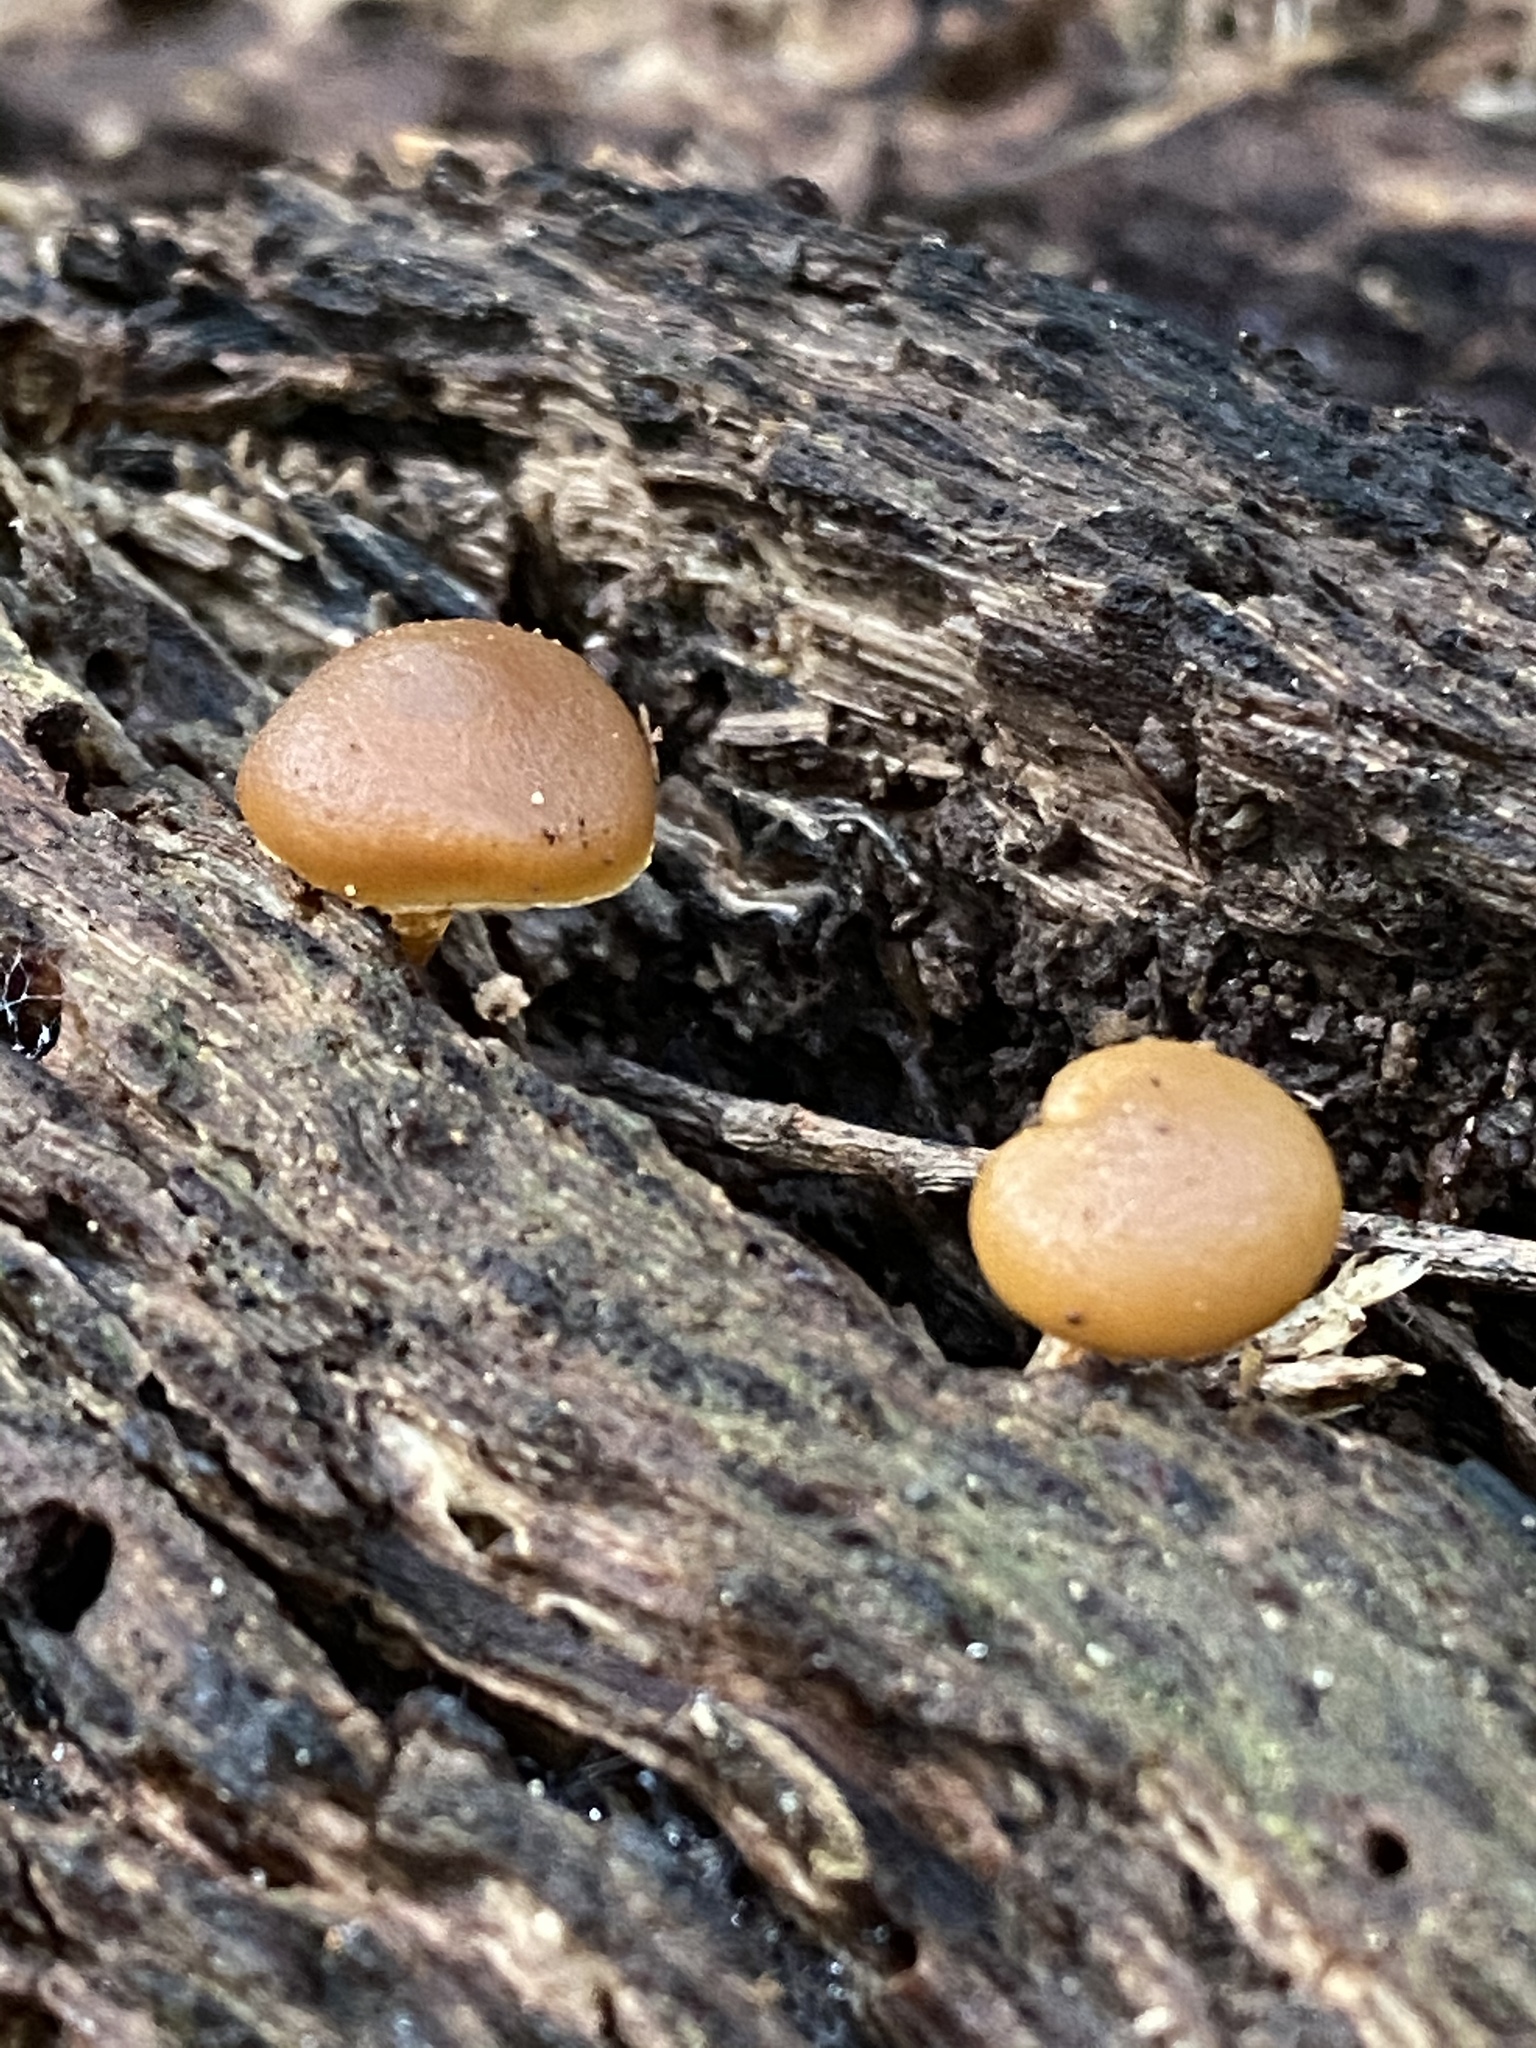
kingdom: Fungi
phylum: Basidiomycota
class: Agaricomycetes
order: Agaricales
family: Hymenogastraceae
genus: Galerina
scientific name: Galerina marginata
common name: Funeral bell
